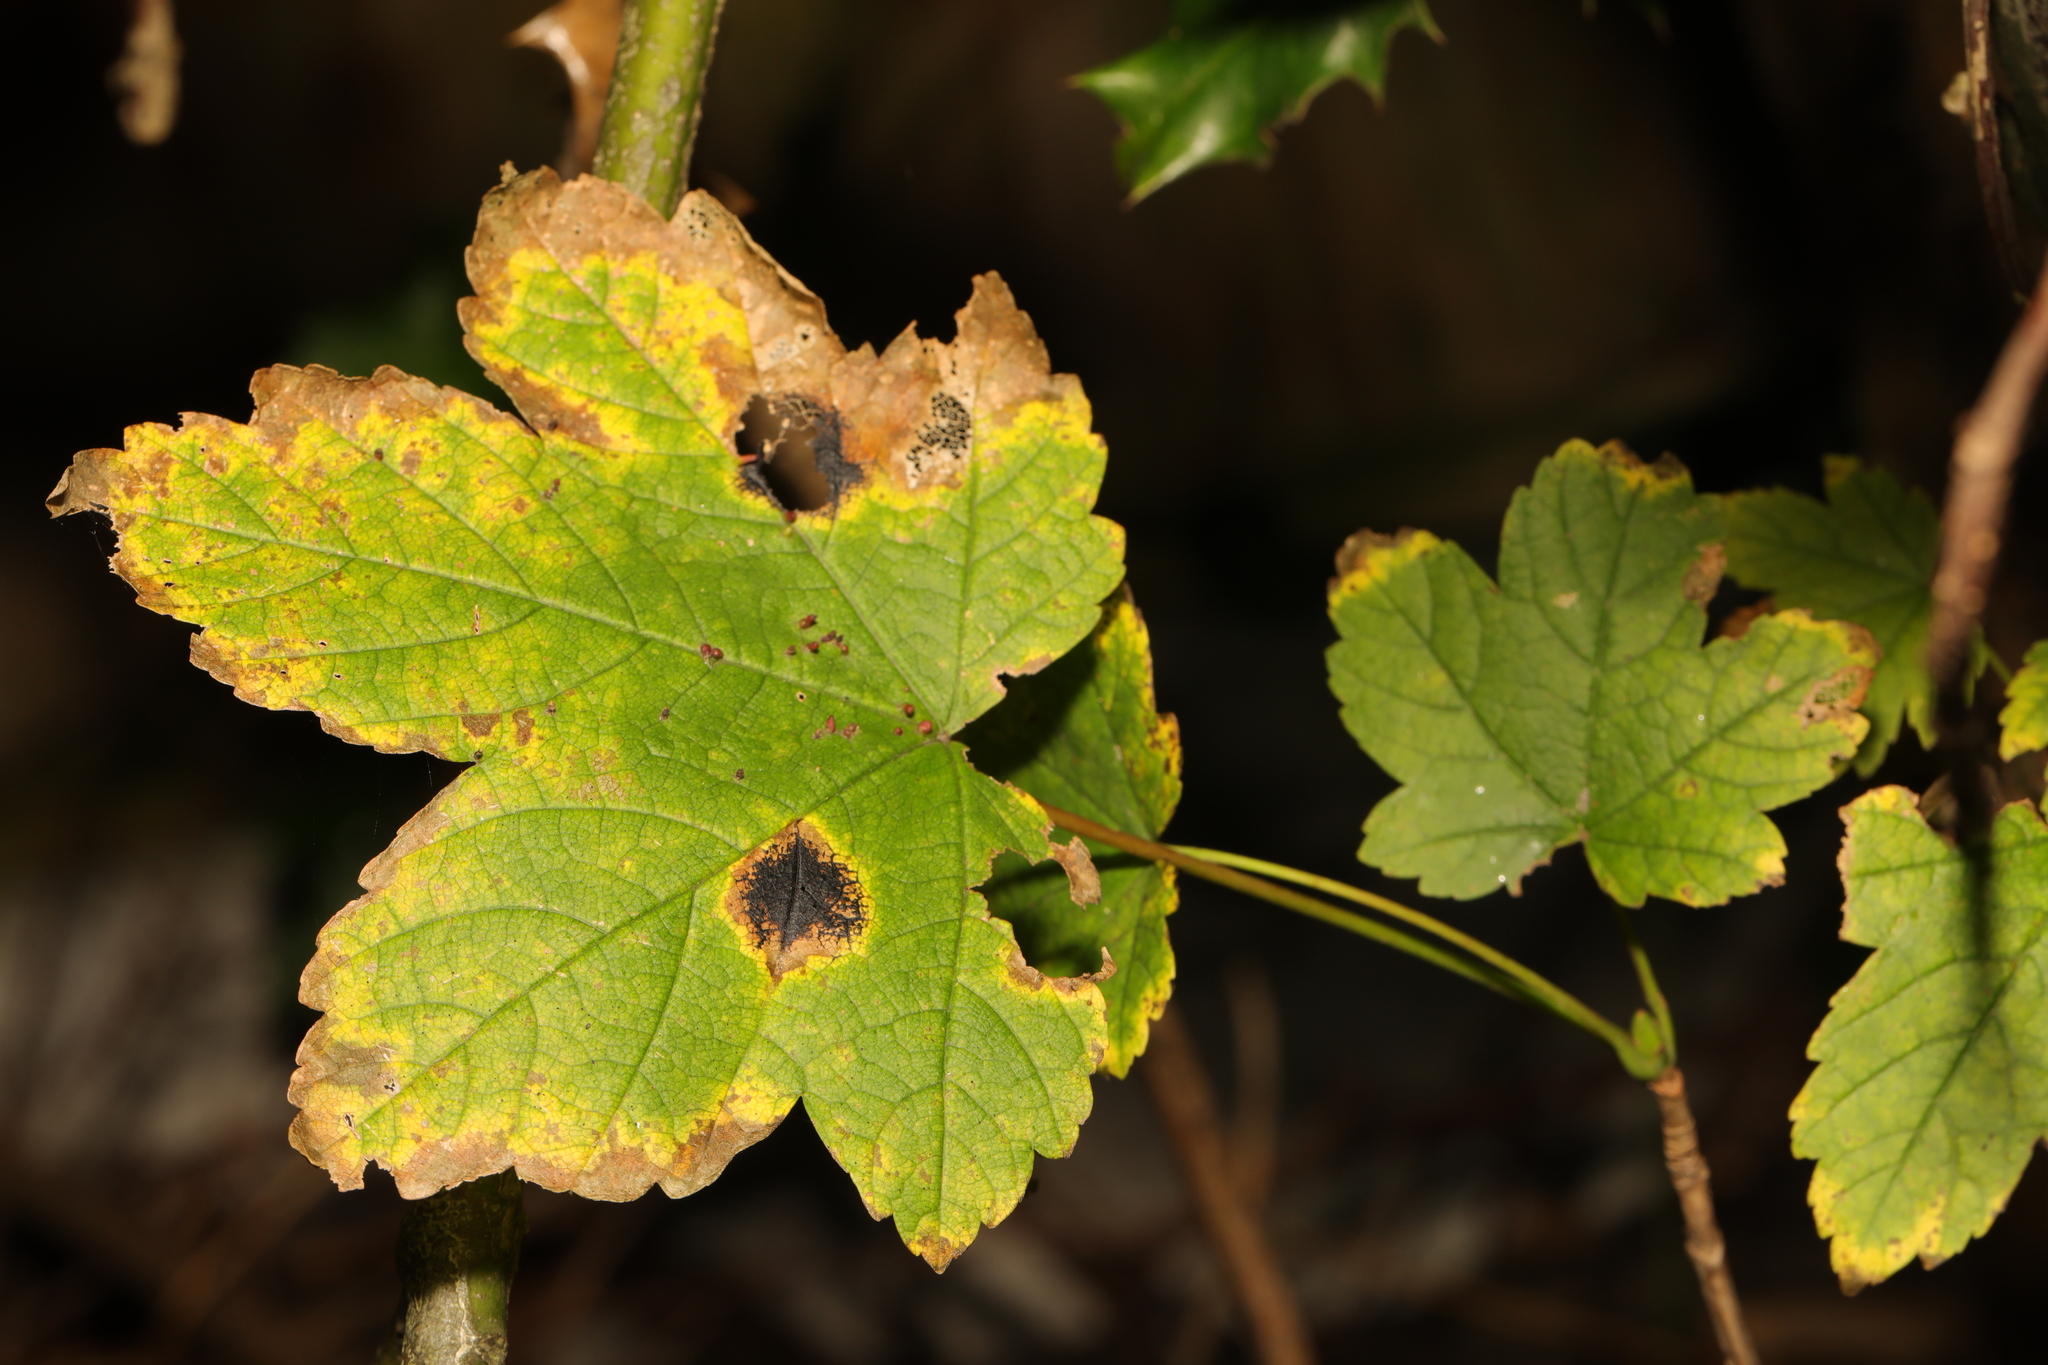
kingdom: Plantae
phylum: Tracheophyta
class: Magnoliopsida
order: Sapindales
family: Sapindaceae
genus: Acer
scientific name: Acer pseudoplatanus
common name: Sycamore
